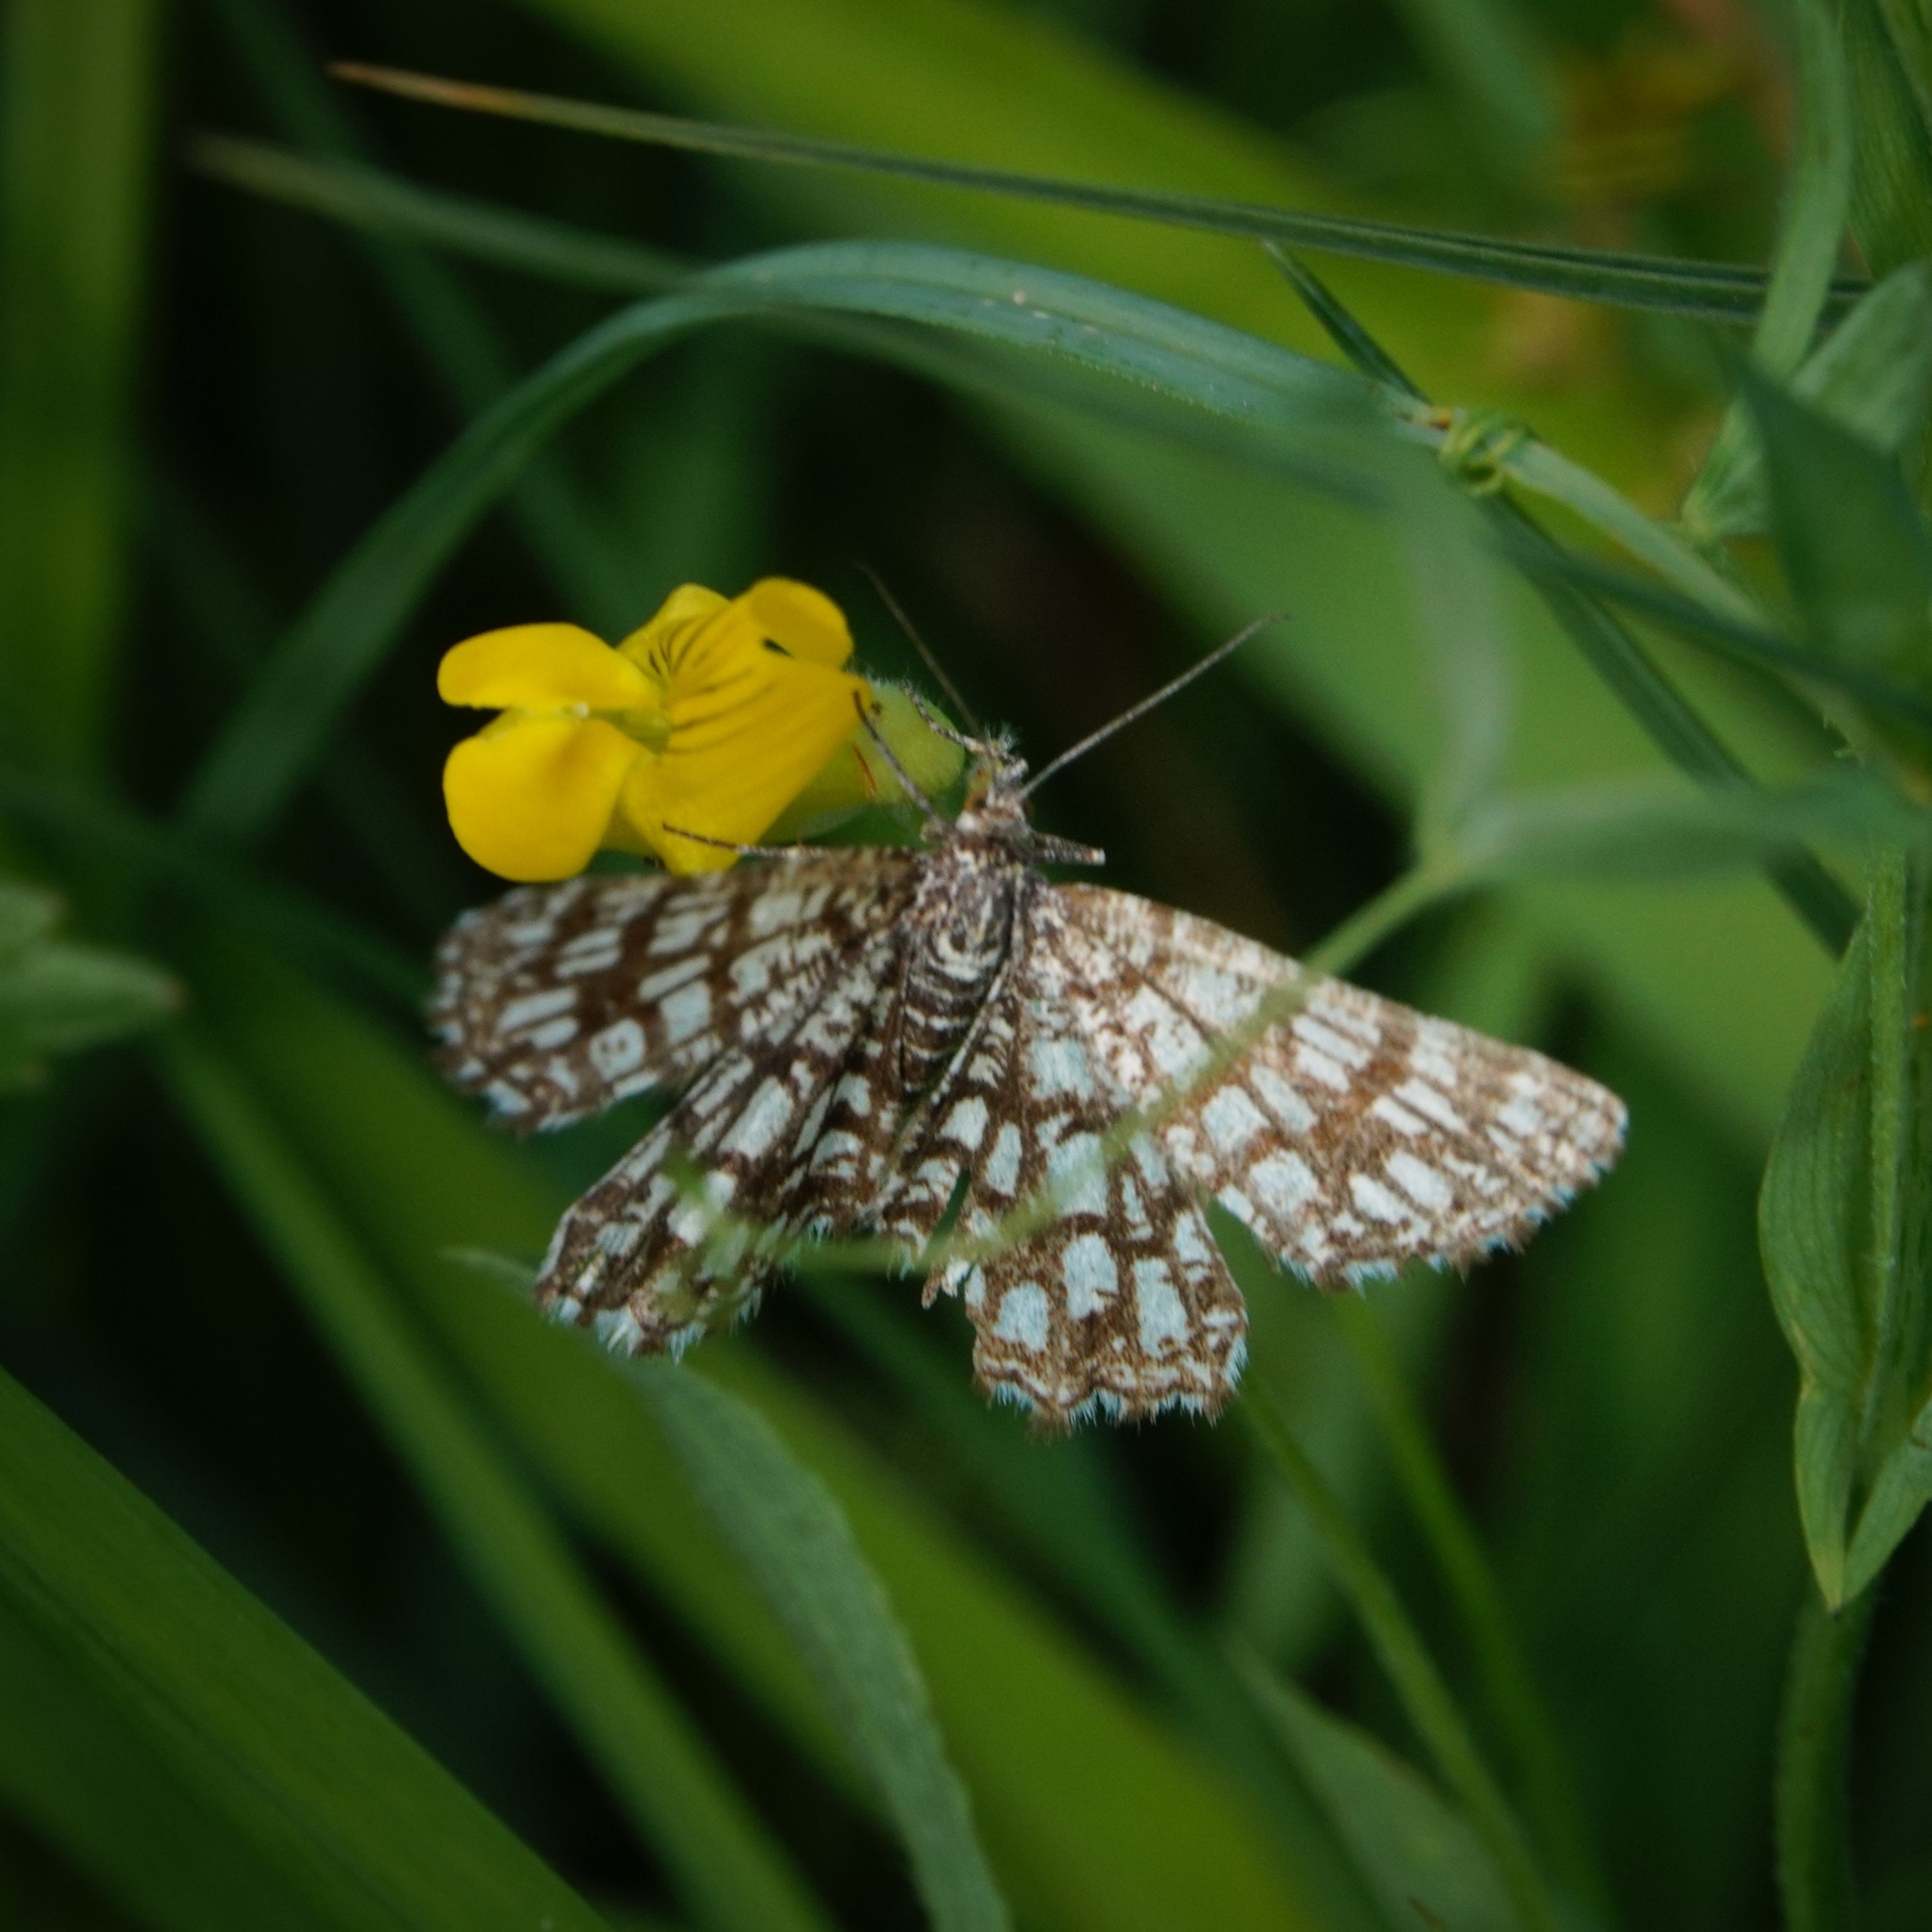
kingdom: Animalia
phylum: Arthropoda
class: Insecta
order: Lepidoptera
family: Geometridae
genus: Chiasmia
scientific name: Chiasmia clathrata
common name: Latticed heath
